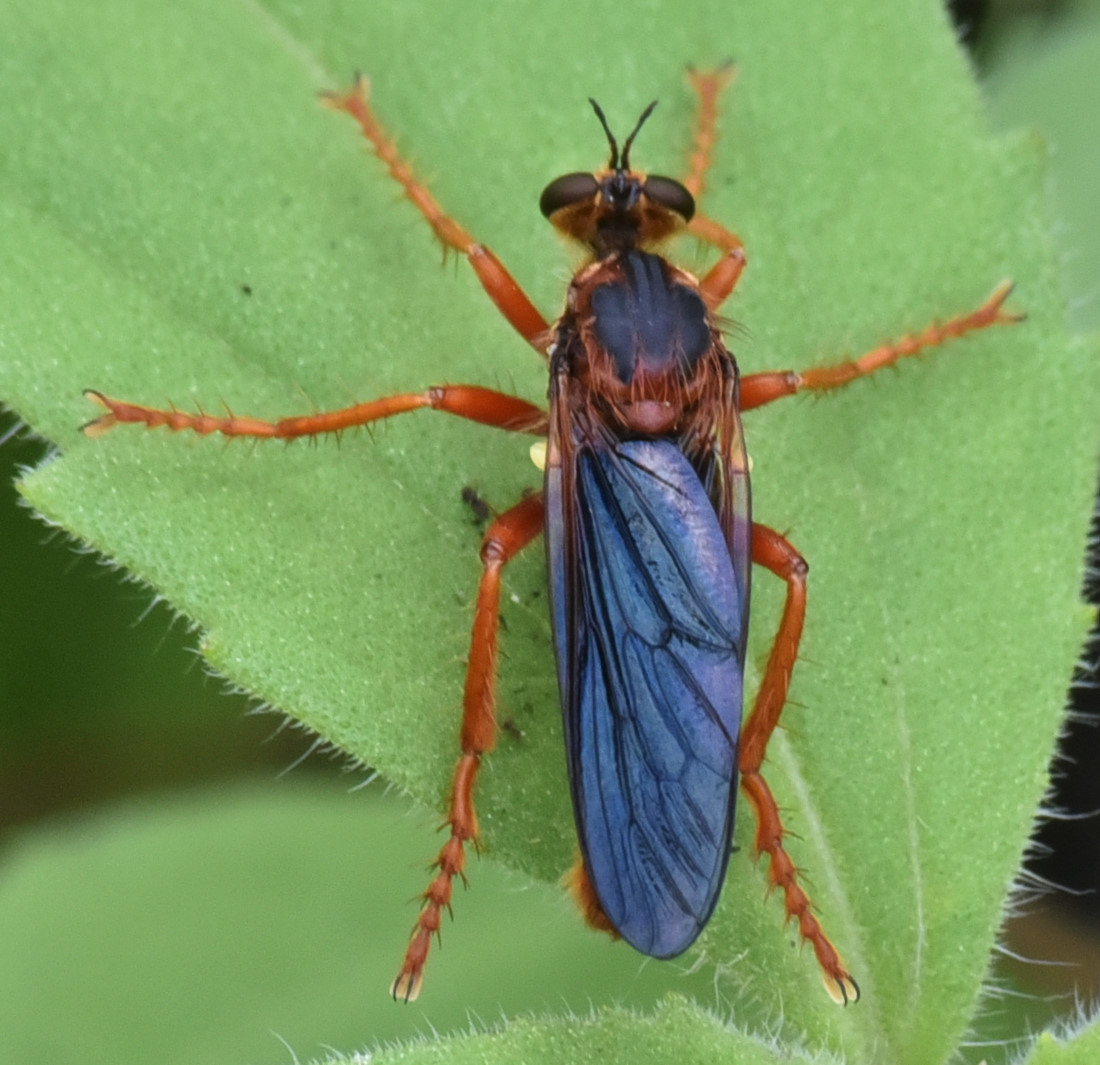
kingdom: Animalia
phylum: Arthropoda
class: Insecta
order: Diptera
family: Asilidae
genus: Callinicus
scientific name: Callinicus calcaneus
